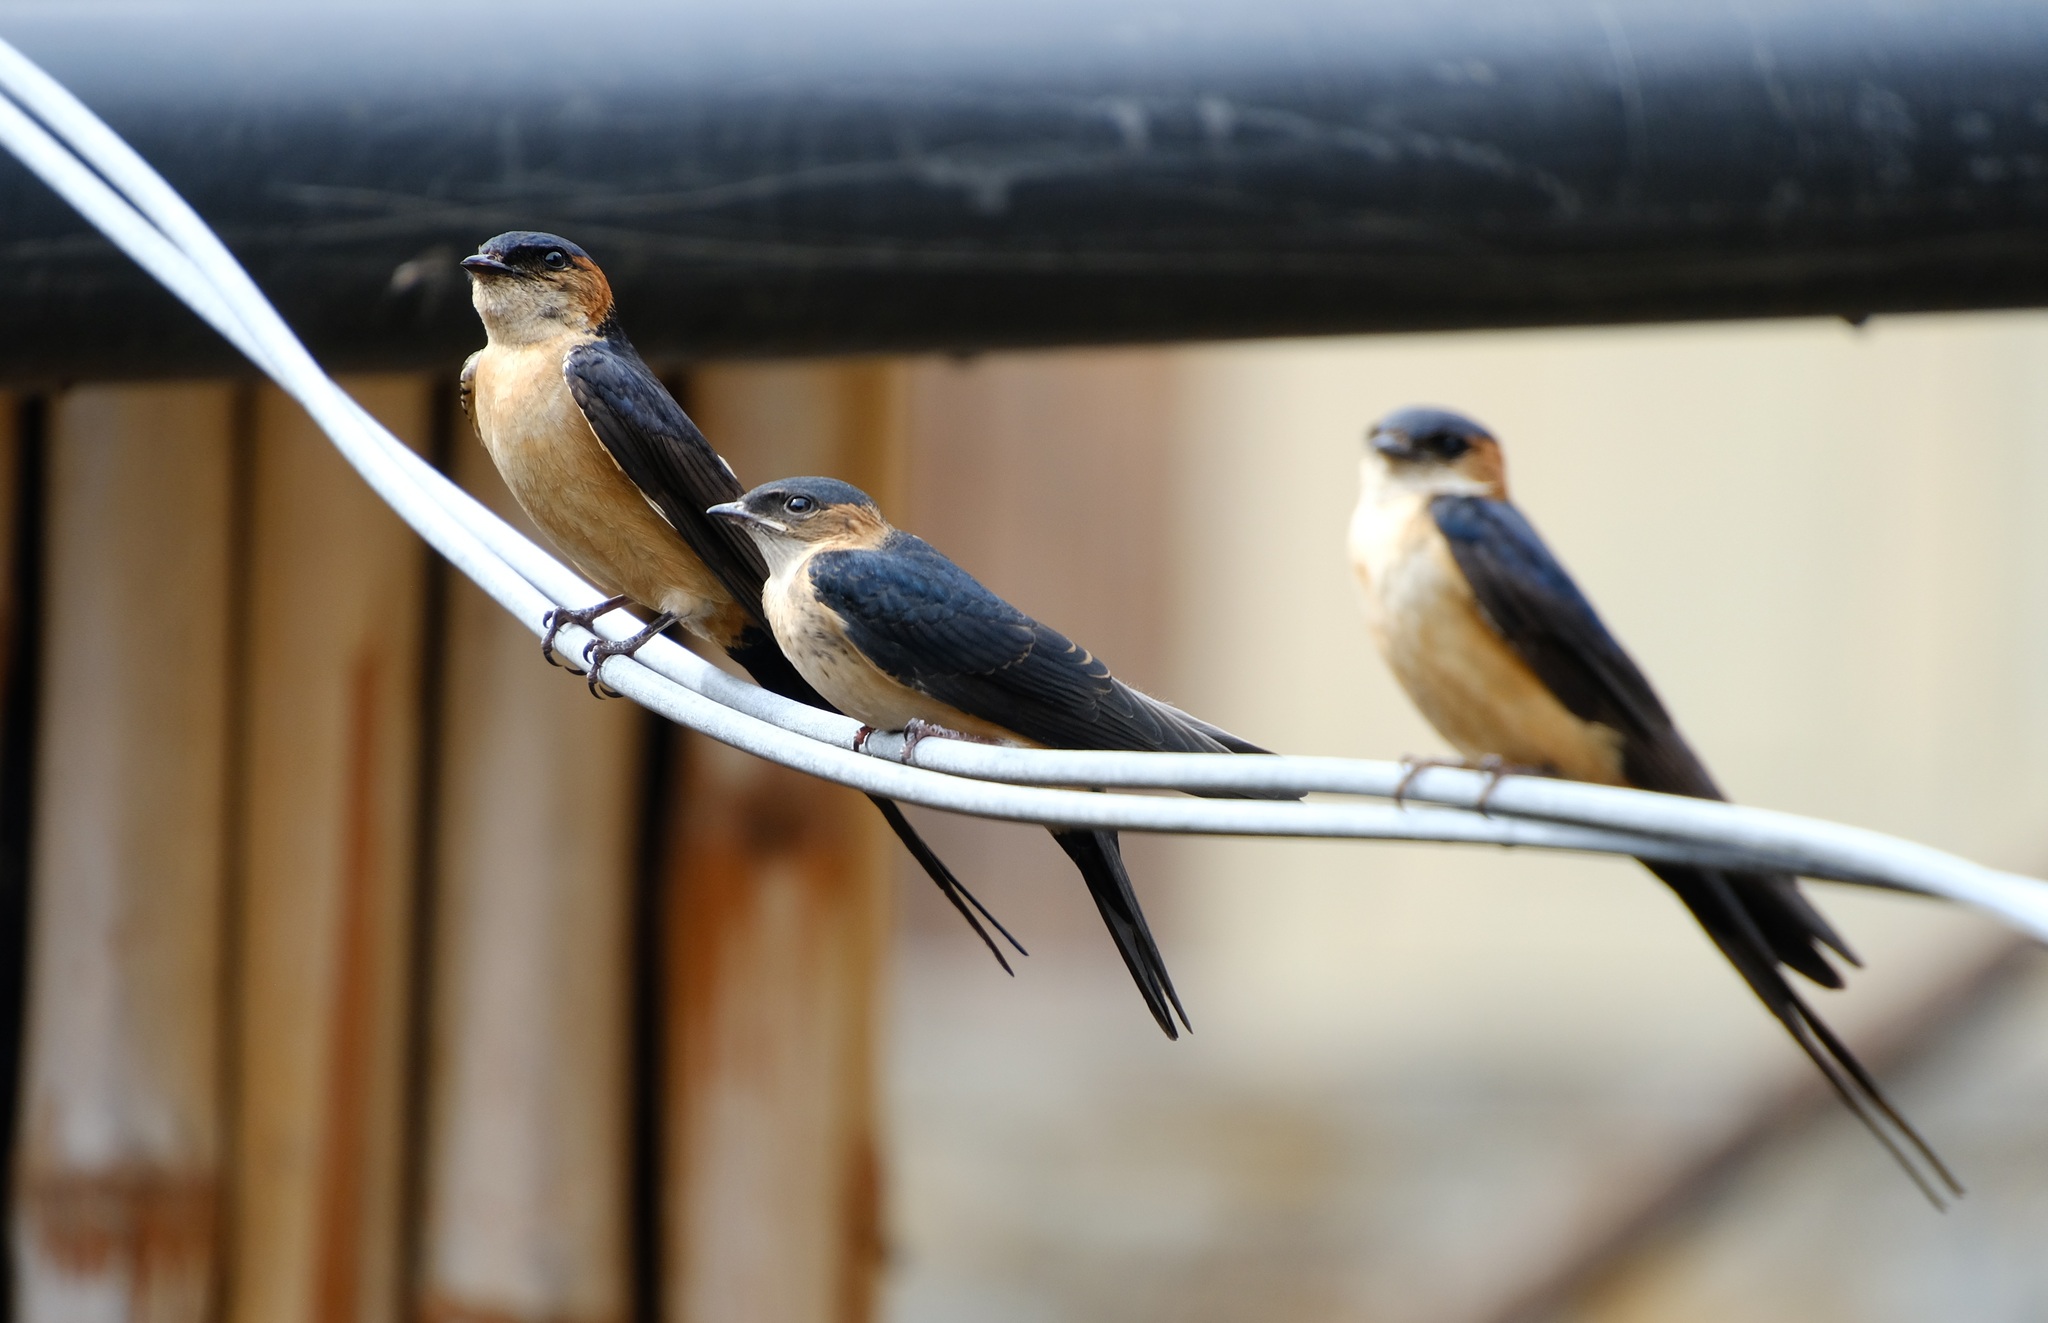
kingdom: Animalia
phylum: Chordata
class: Aves
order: Passeriformes
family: Hirundinidae
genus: Cecropis
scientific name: Cecropis daurica
